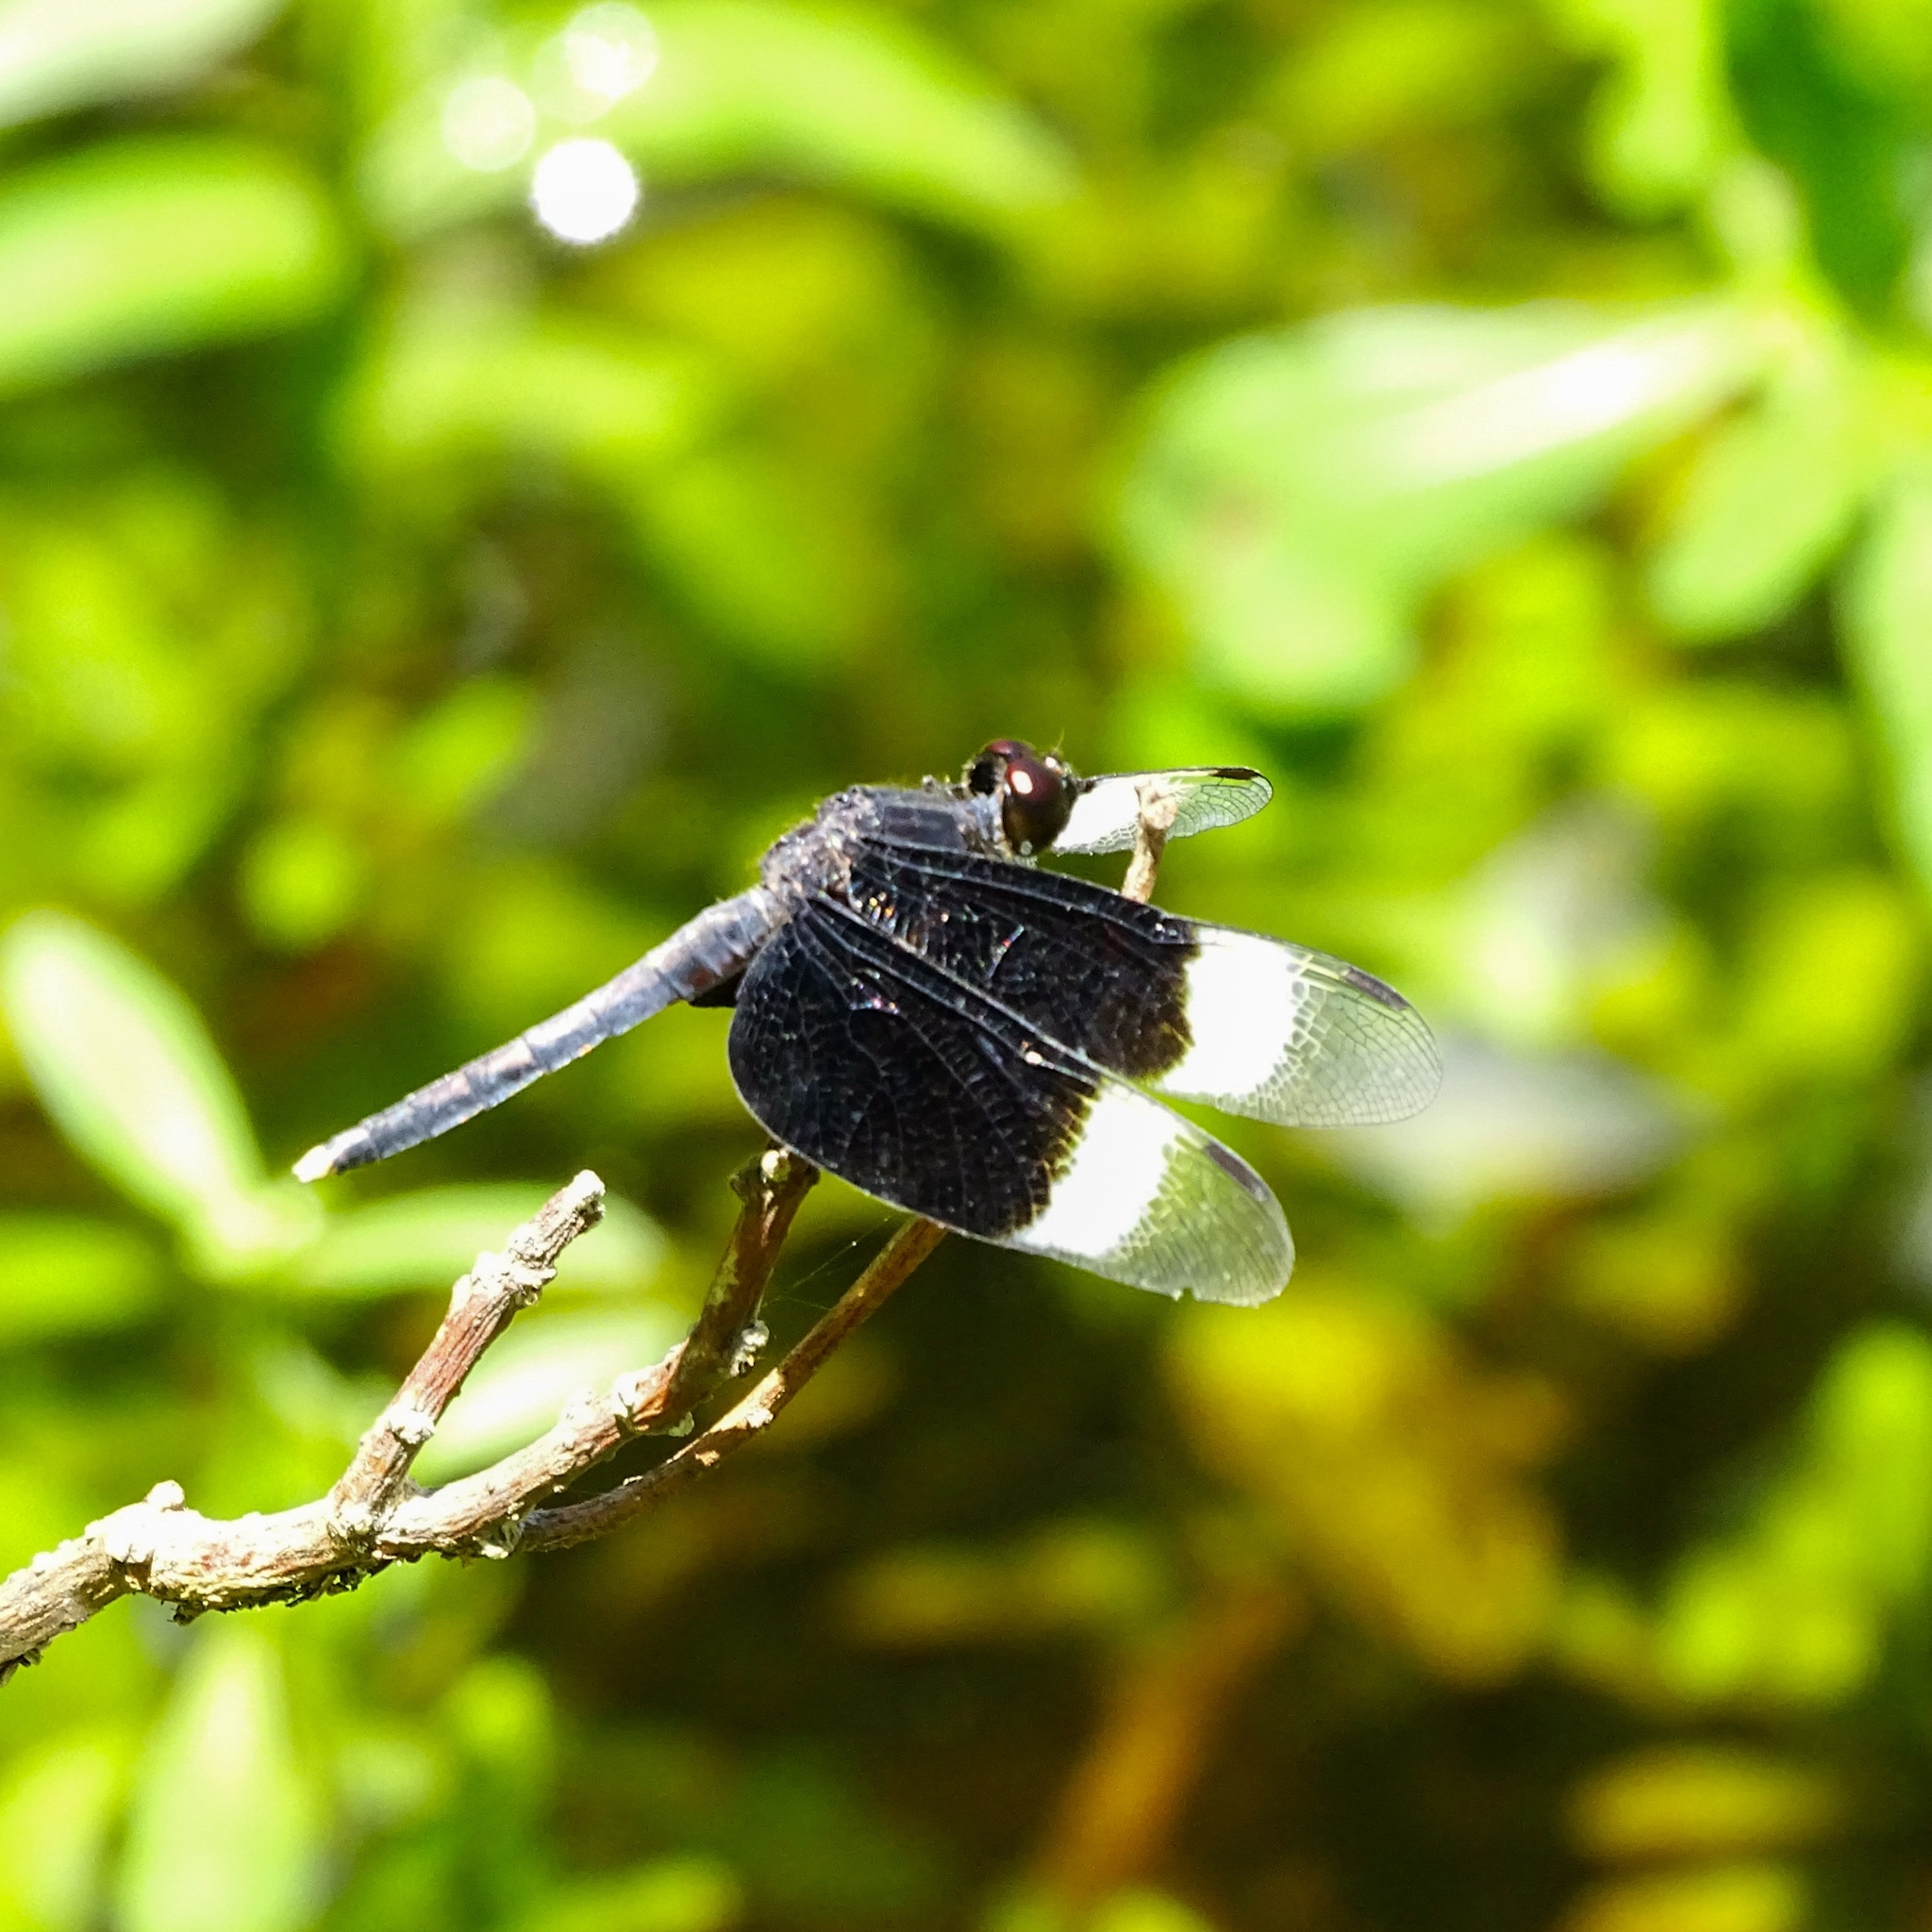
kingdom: Animalia
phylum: Arthropoda
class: Insecta
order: Odonata
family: Libellulidae
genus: Neurothemis
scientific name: Neurothemis tullia
